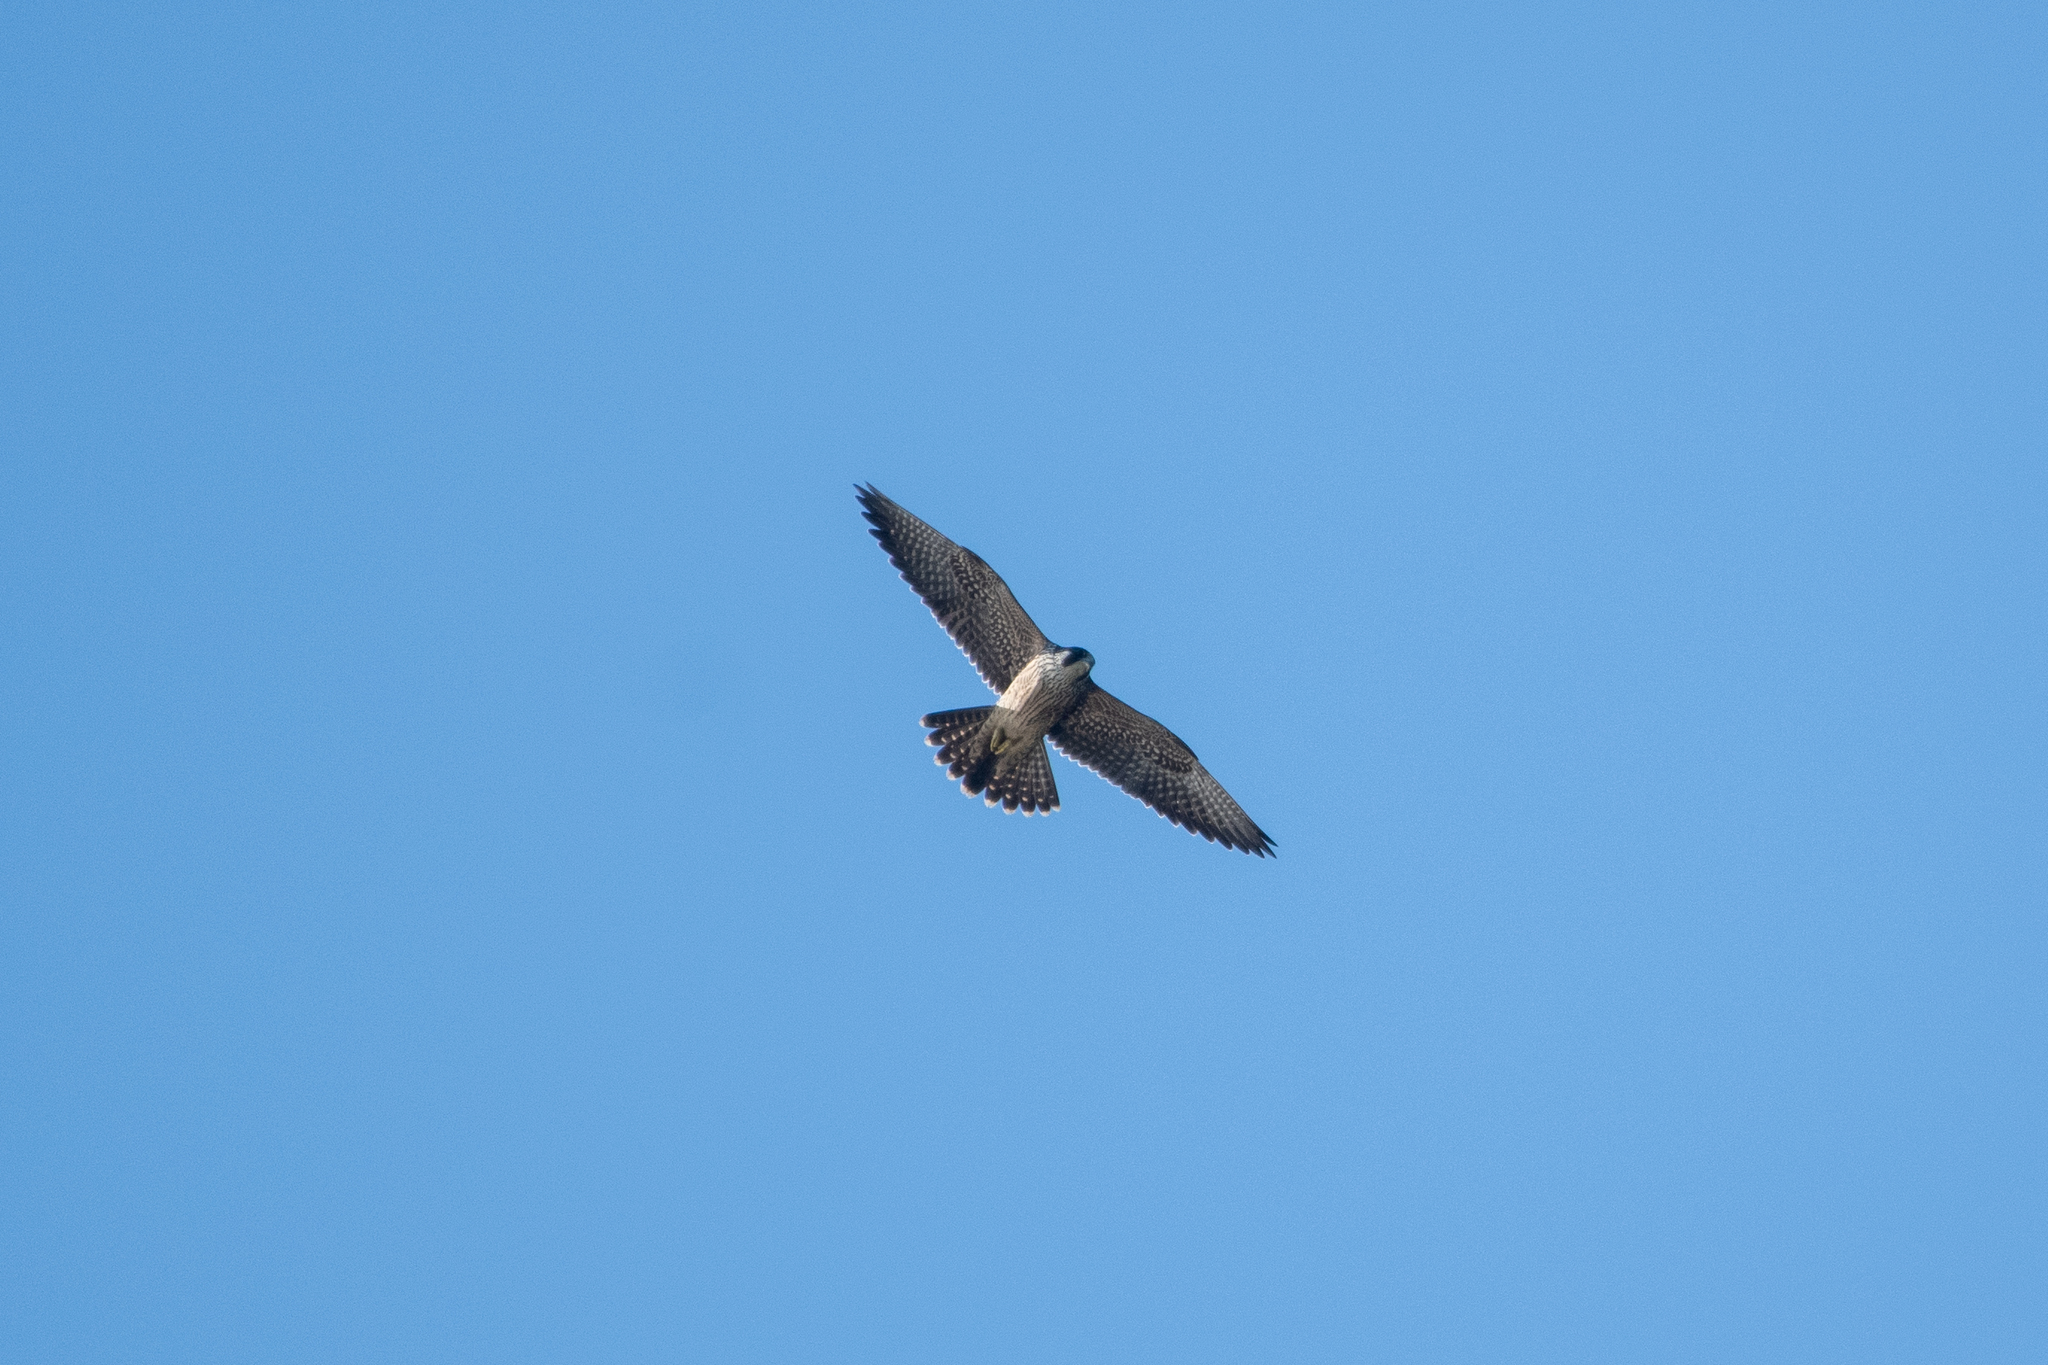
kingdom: Animalia
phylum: Chordata
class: Aves
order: Falconiformes
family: Falconidae
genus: Falco
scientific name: Falco peregrinus
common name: Peregrine falcon
